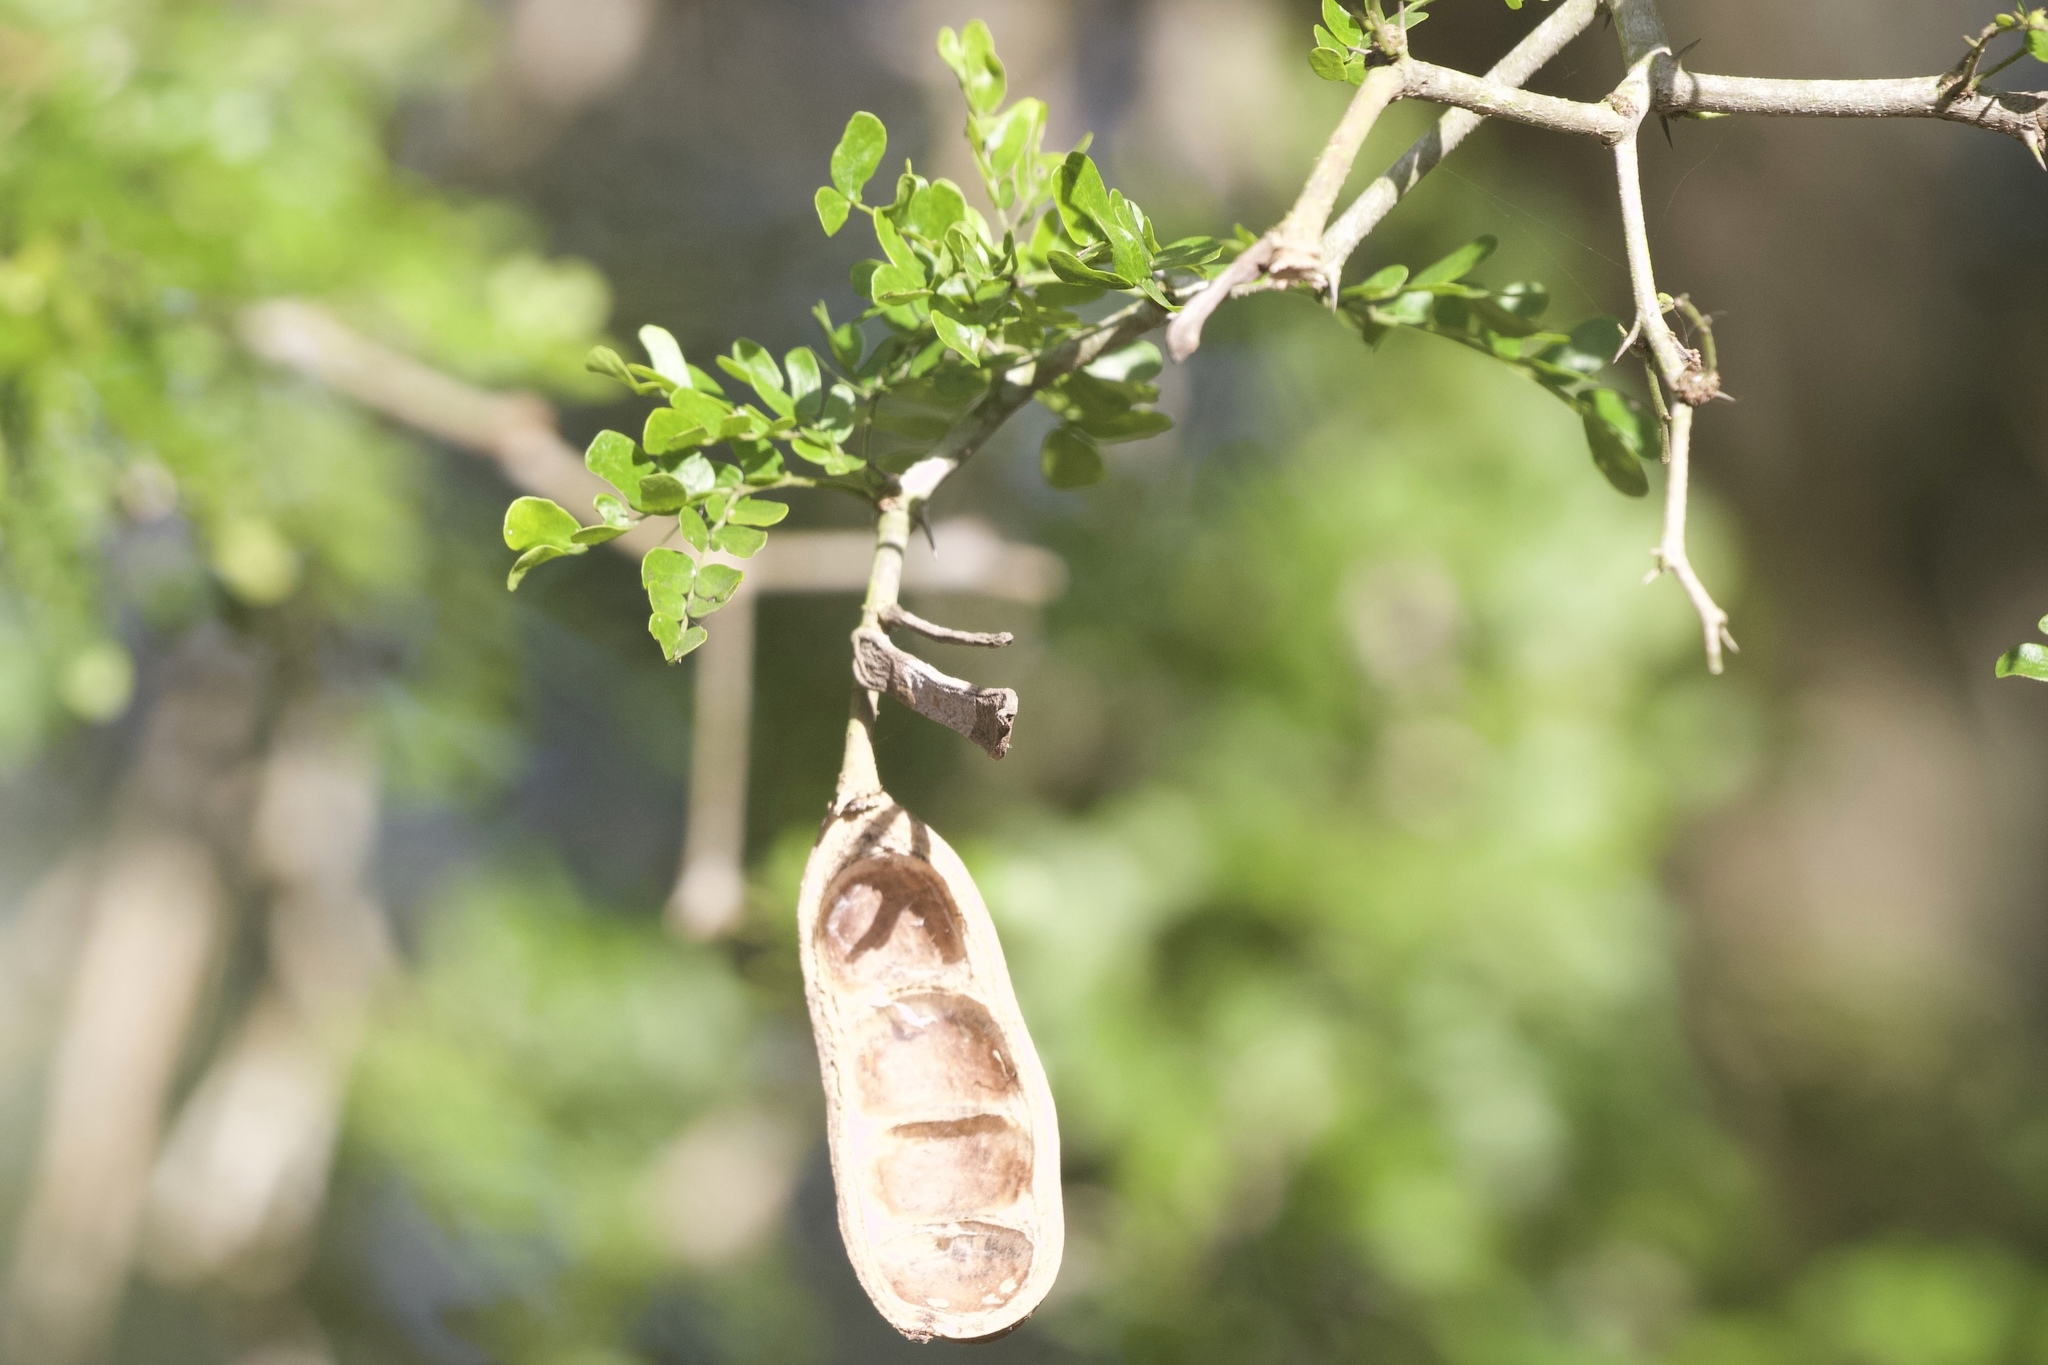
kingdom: Plantae
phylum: Tracheophyta
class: Magnoliopsida
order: Fabales
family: Fabaceae
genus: Ebenopsis
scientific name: Ebenopsis ebano
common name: Ebony blackbead
